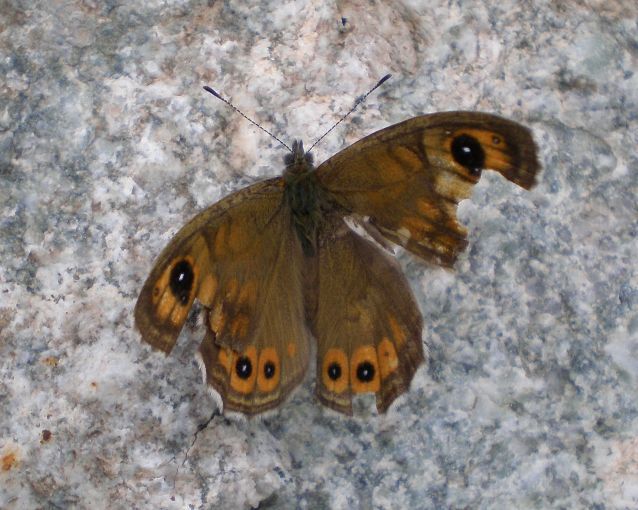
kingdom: Animalia
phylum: Arthropoda
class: Insecta
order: Lepidoptera
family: Nymphalidae
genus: Pararge
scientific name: Pararge Lasiommata maera
